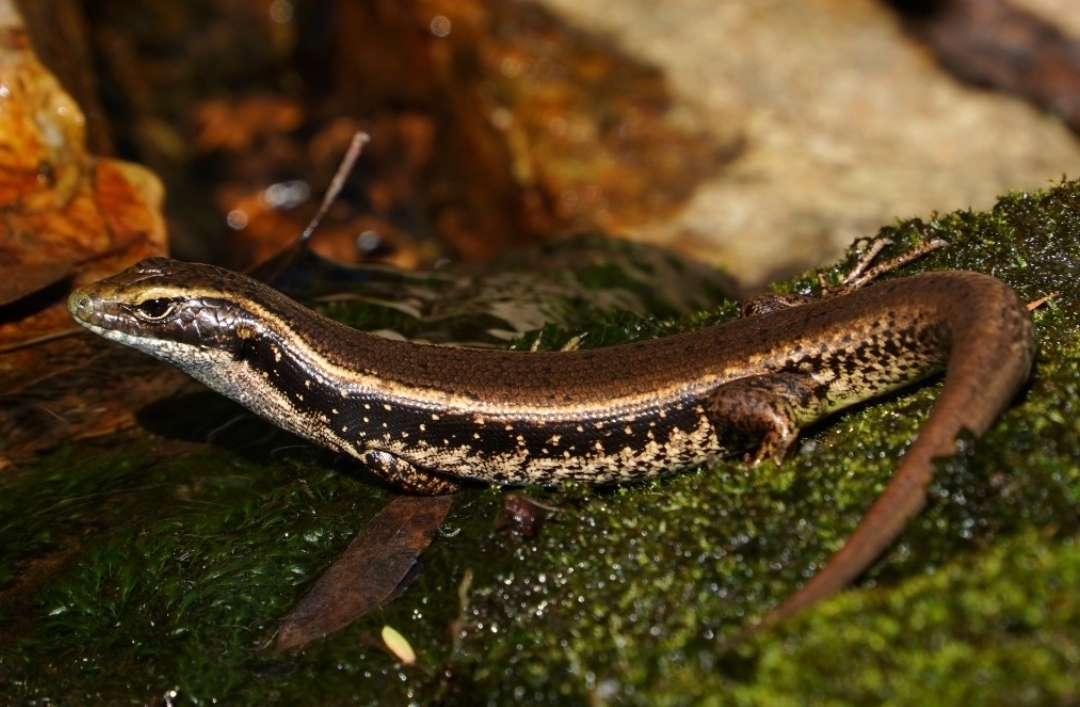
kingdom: Animalia
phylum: Chordata
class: Squamata
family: Scincidae
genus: Eulamprus
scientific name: Eulamprus quoyii
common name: Eastern water skink
